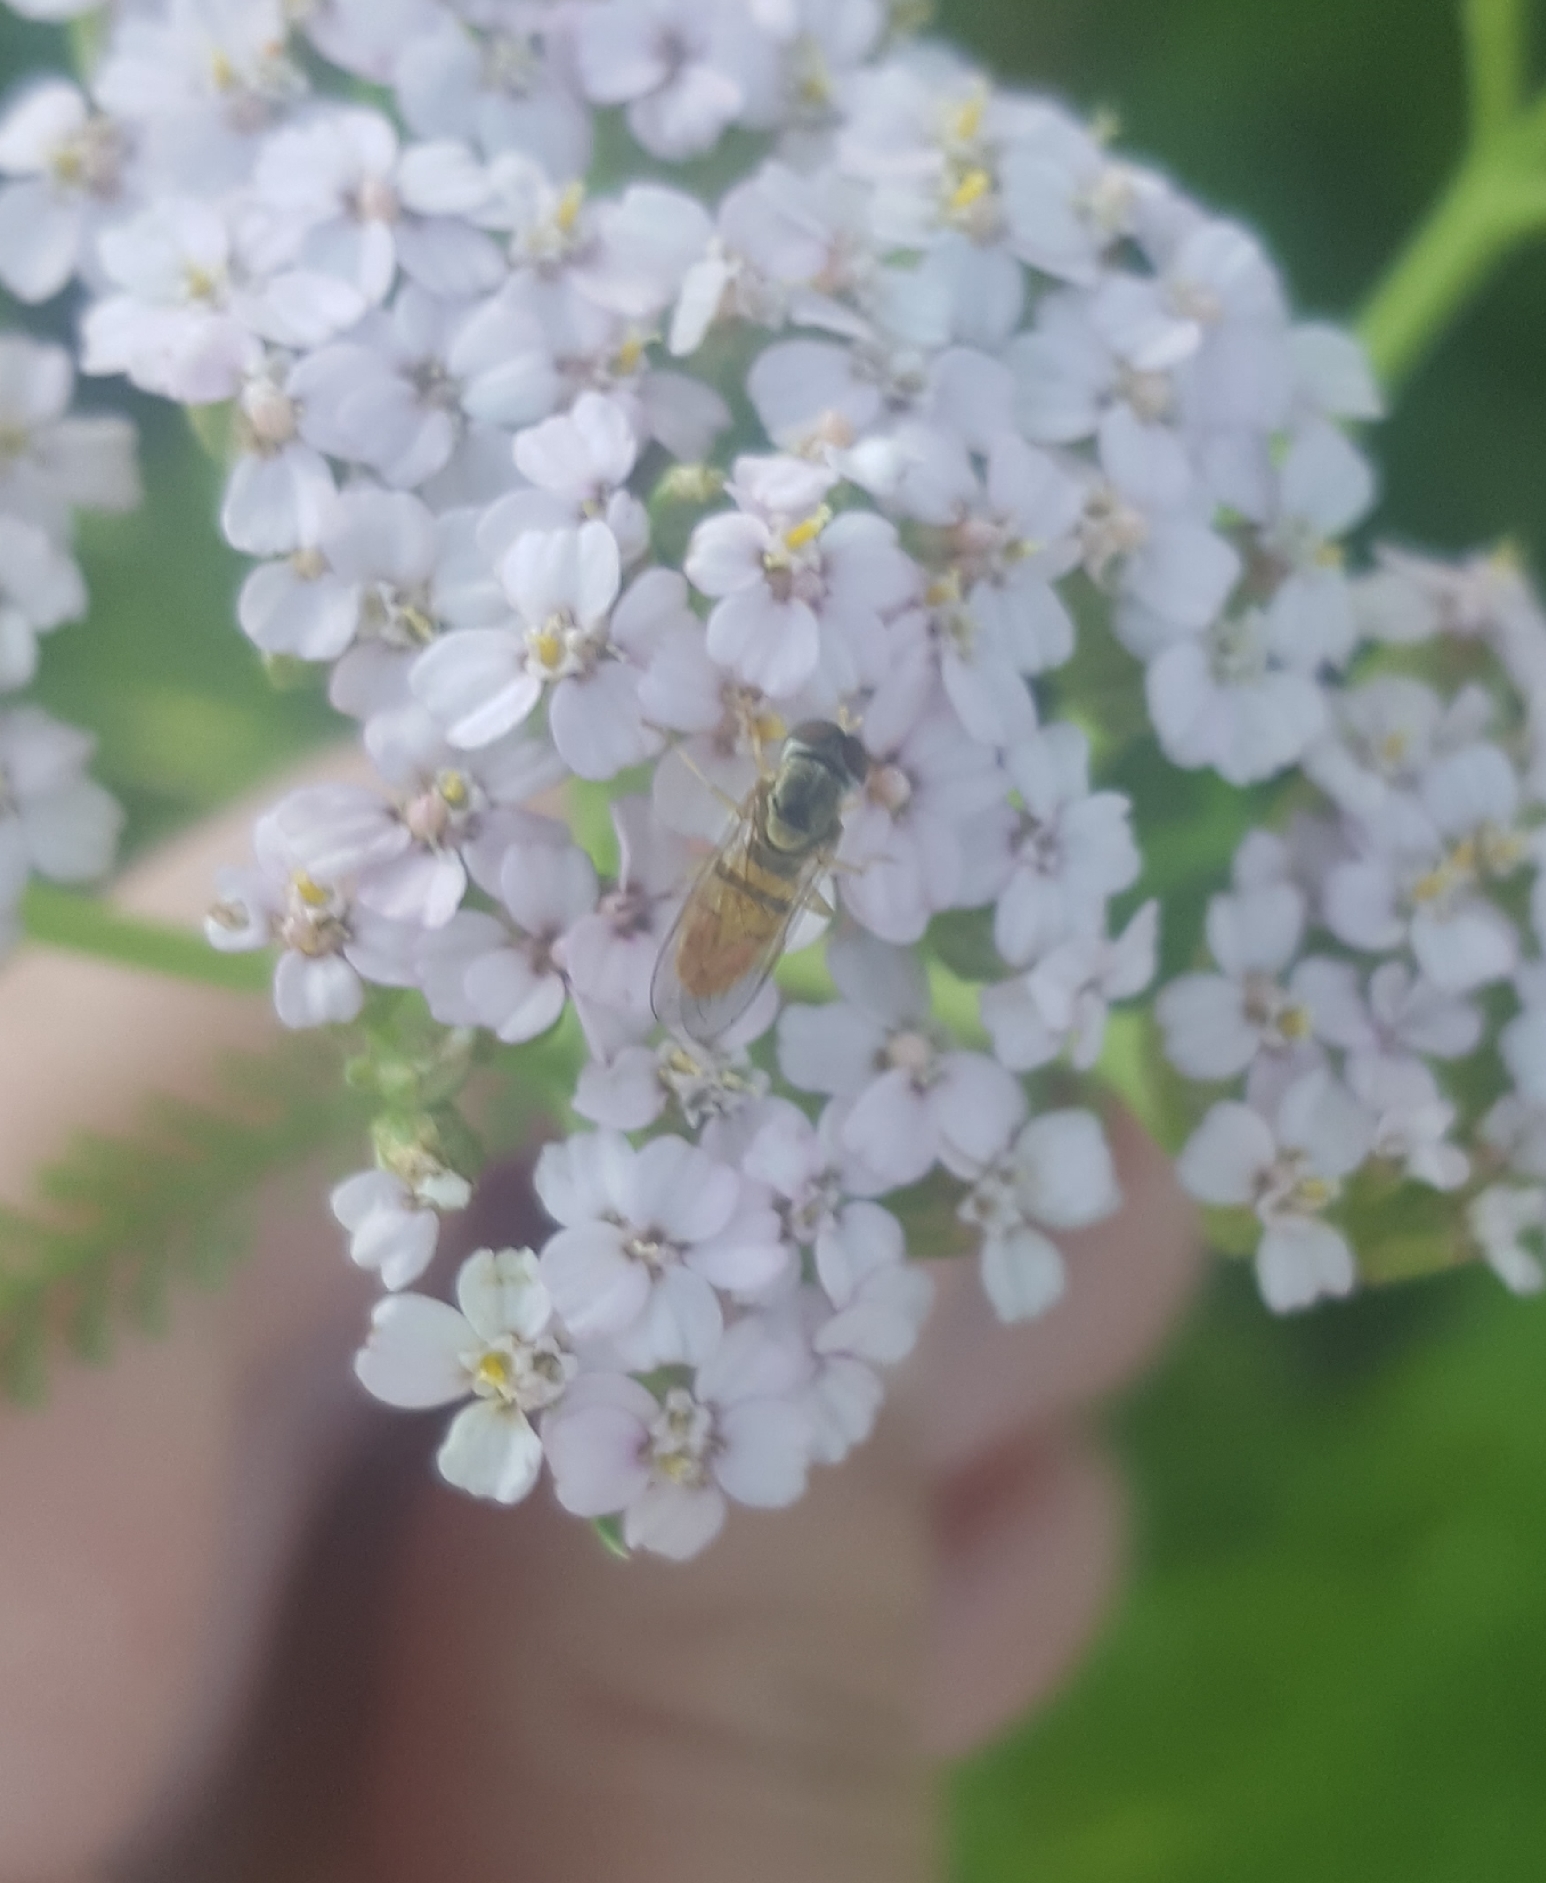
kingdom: Animalia
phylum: Arthropoda
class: Insecta
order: Diptera
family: Syrphidae
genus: Toxomerus
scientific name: Toxomerus marginatus
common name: Syrphid fly
